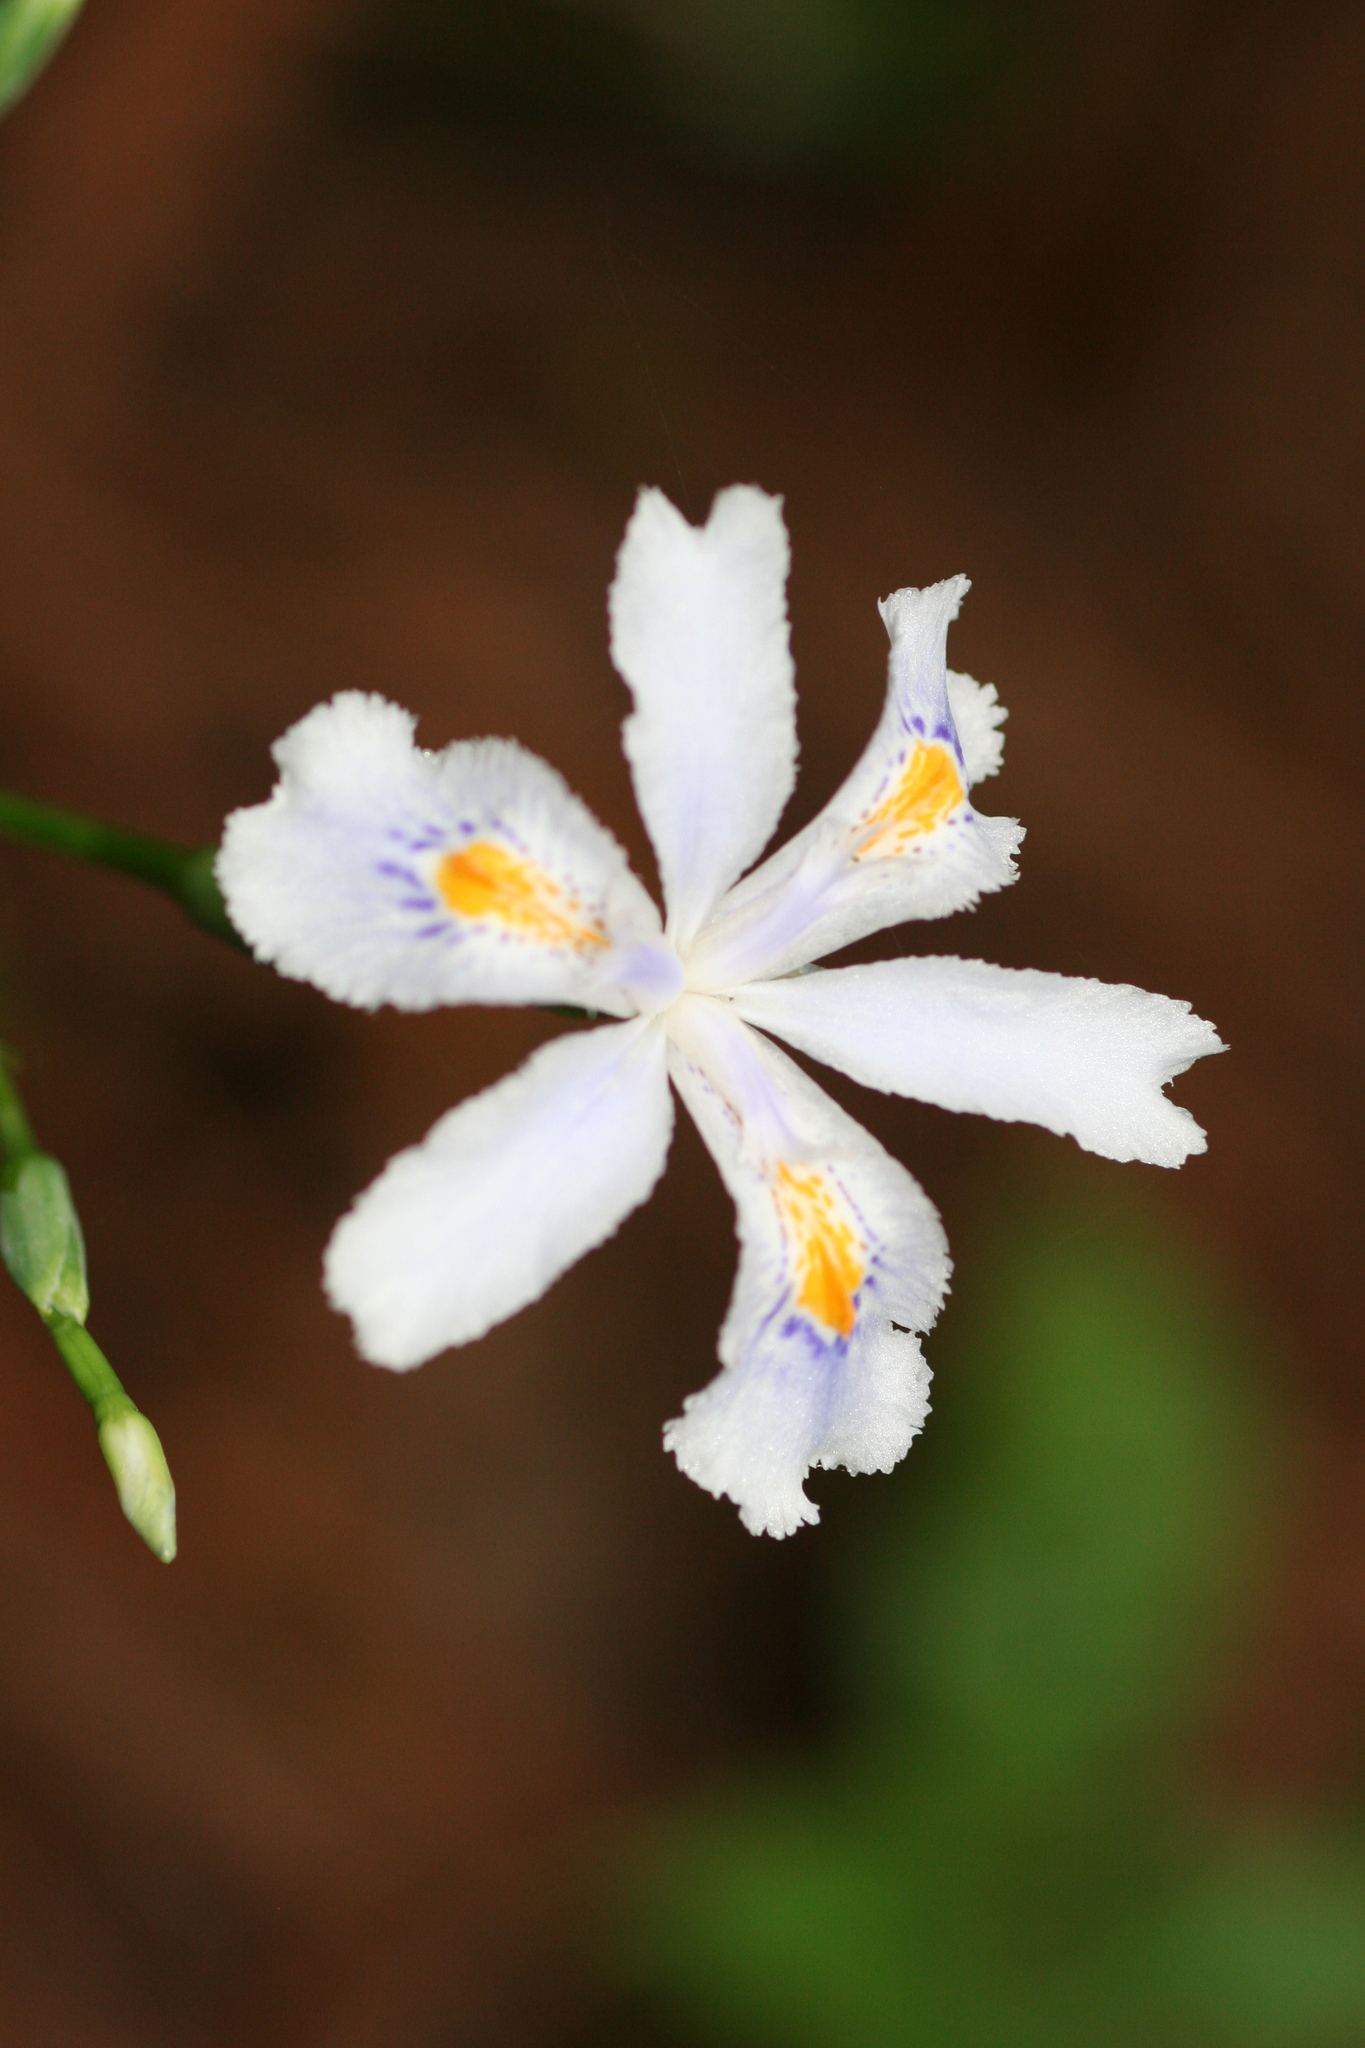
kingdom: Plantae
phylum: Tracheophyta
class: Liliopsida
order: Asparagales
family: Iridaceae
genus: Iris
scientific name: Iris japonica
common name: Butterfly-flower
